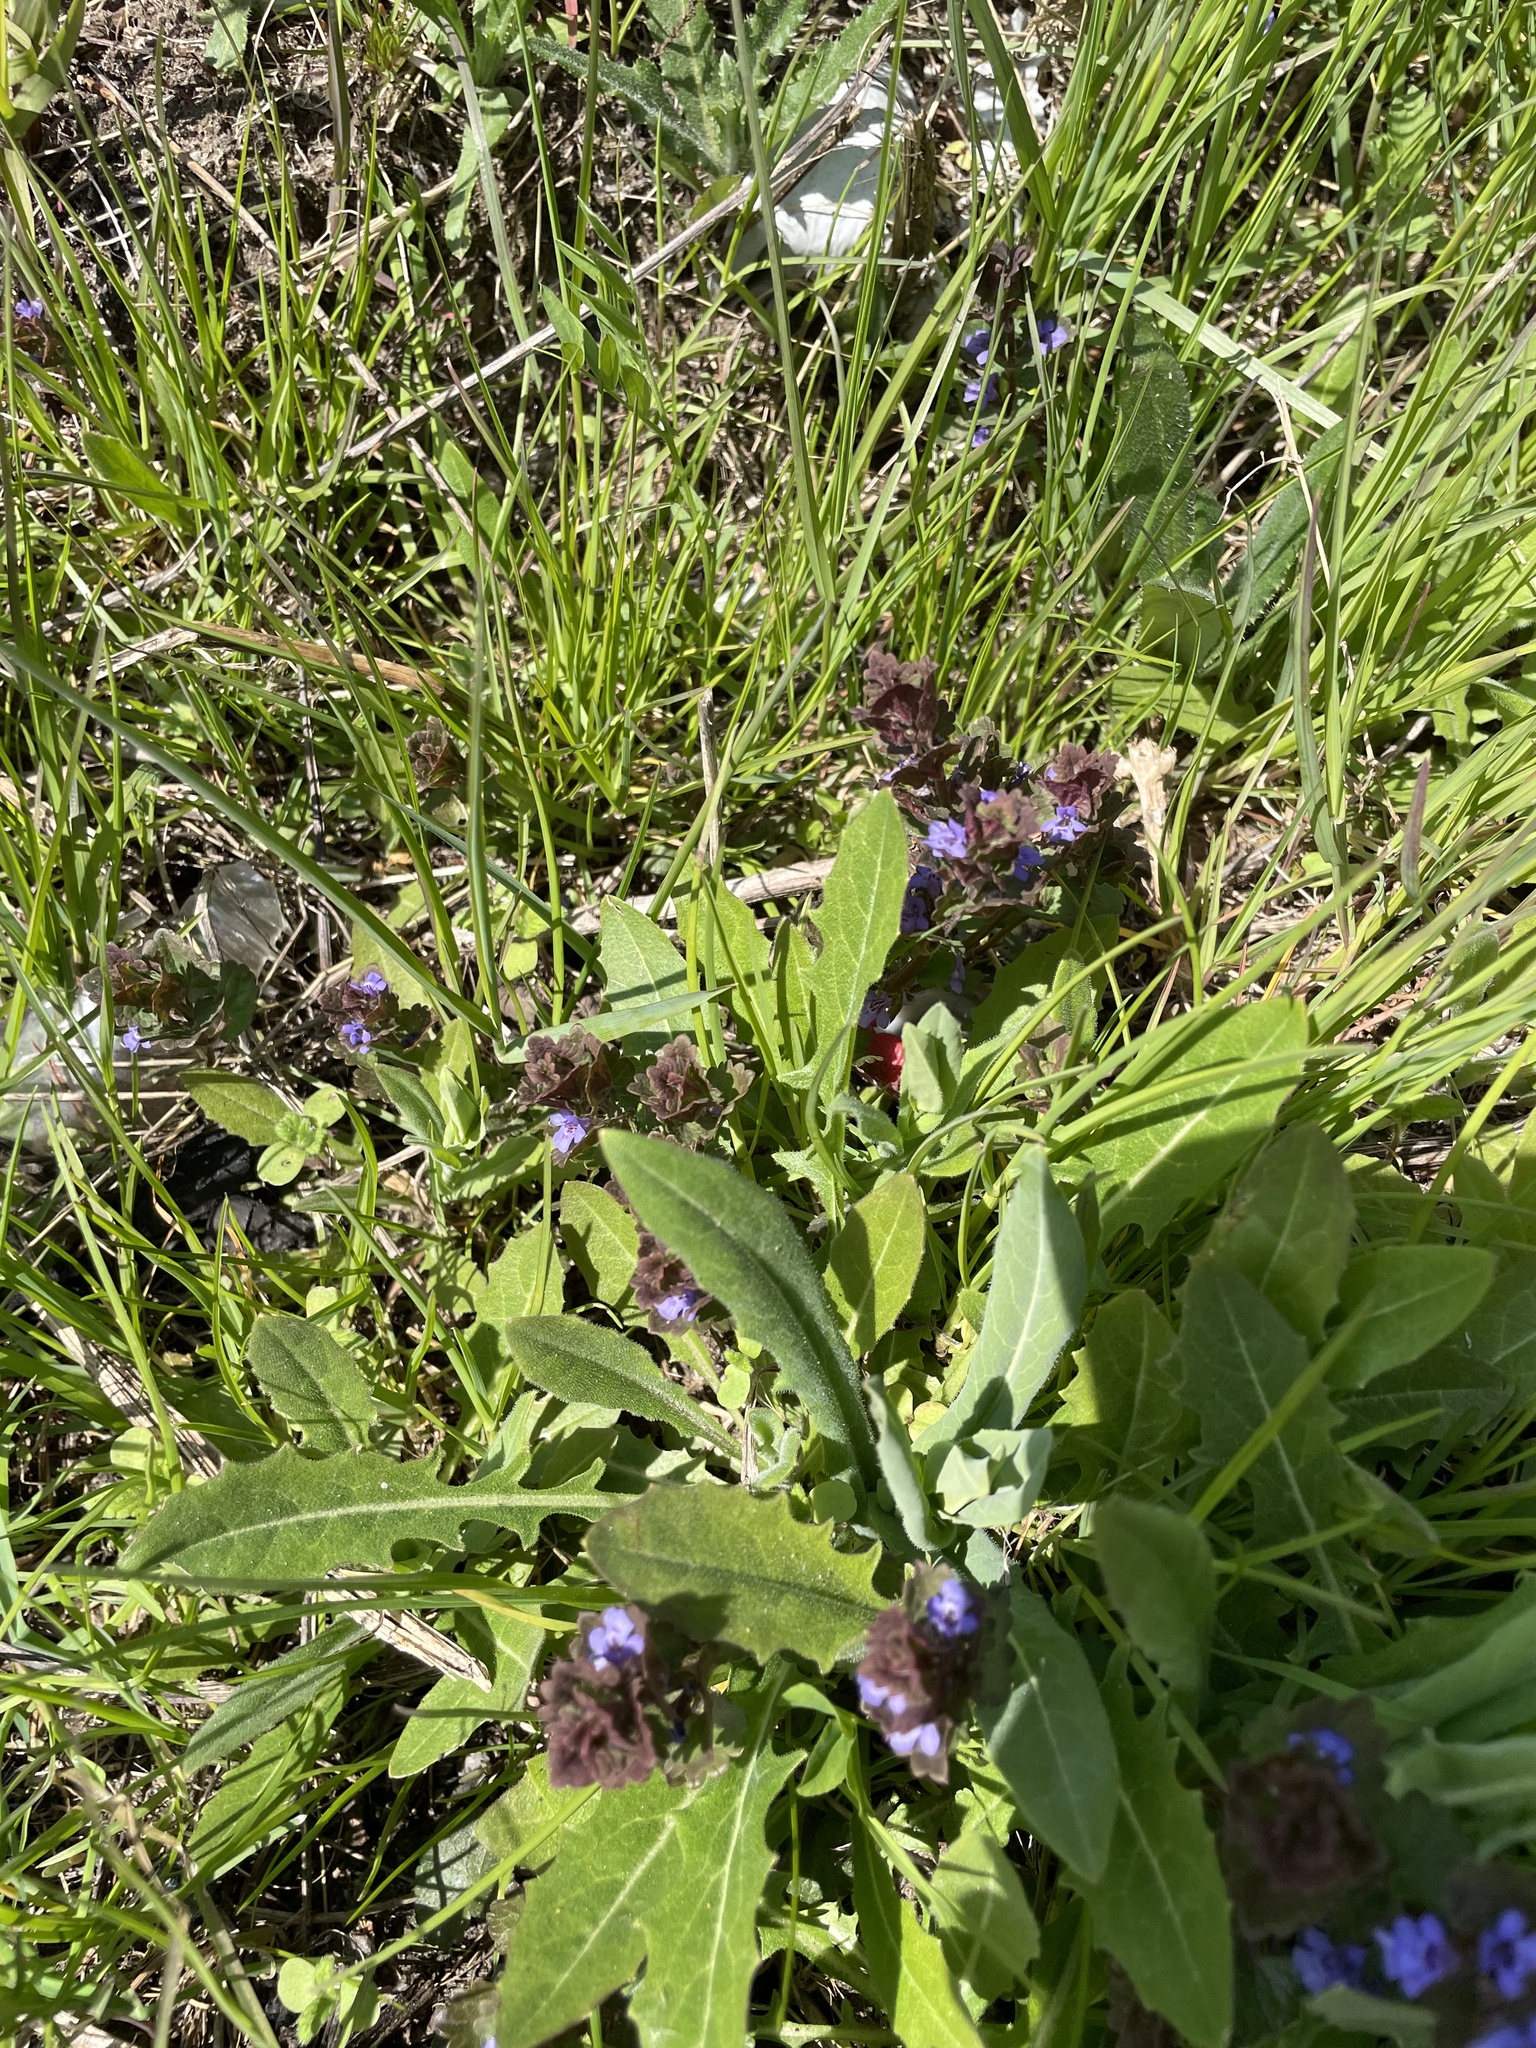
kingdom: Plantae
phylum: Tracheophyta
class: Magnoliopsida
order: Lamiales
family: Lamiaceae
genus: Glechoma
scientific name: Glechoma hederacea
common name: Ground ivy
